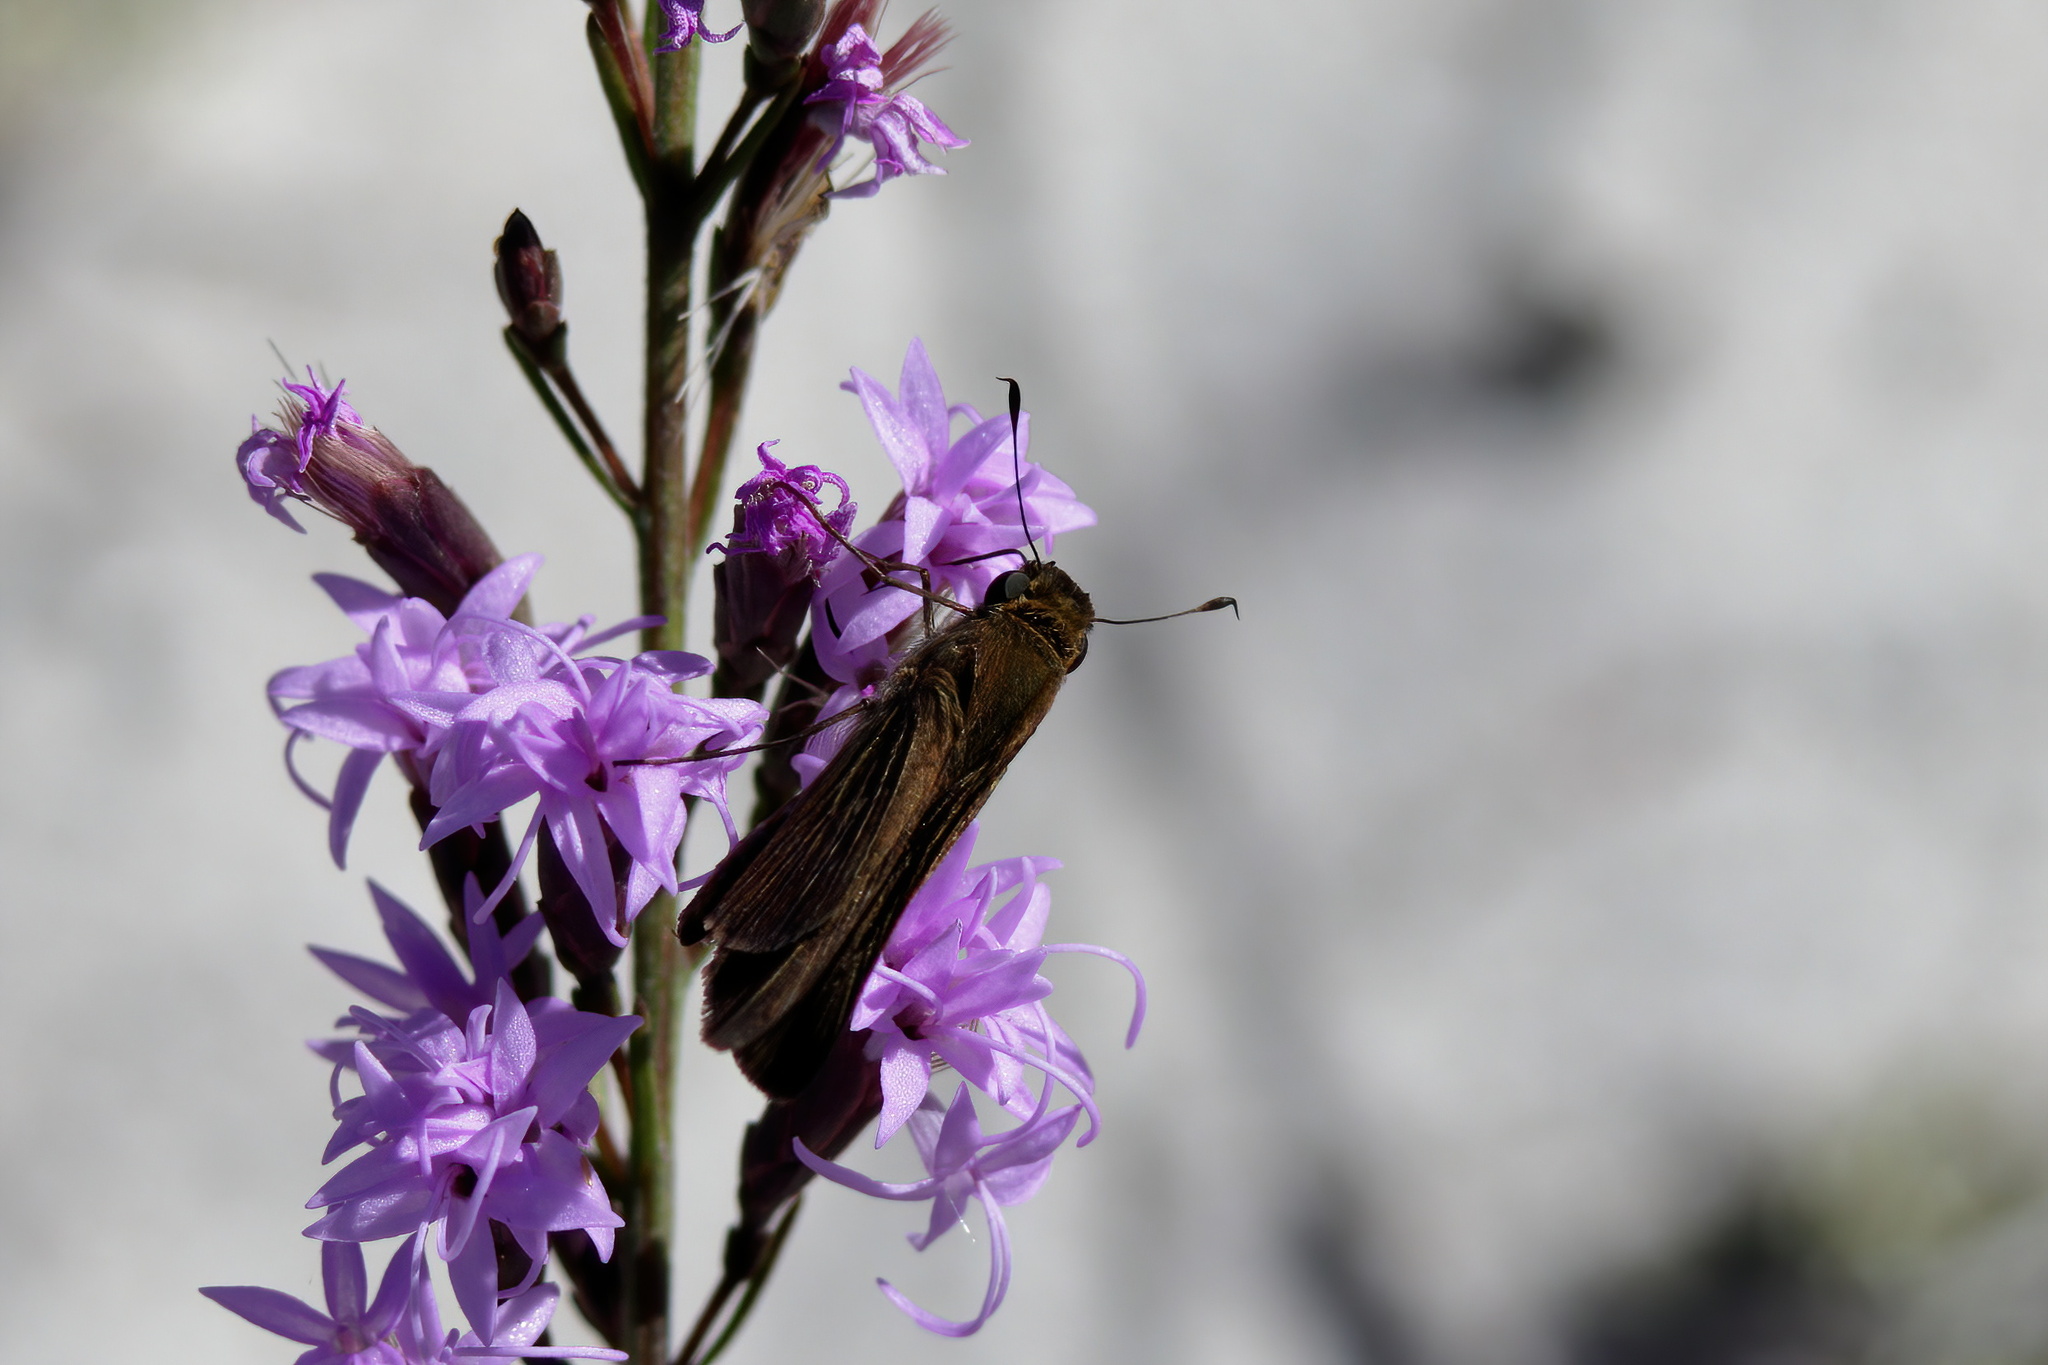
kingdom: Animalia
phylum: Arthropoda
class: Insecta
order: Lepidoptera
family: Hesperiidae
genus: Panoquina
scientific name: Panoquina ocola
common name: Ocola skipper
